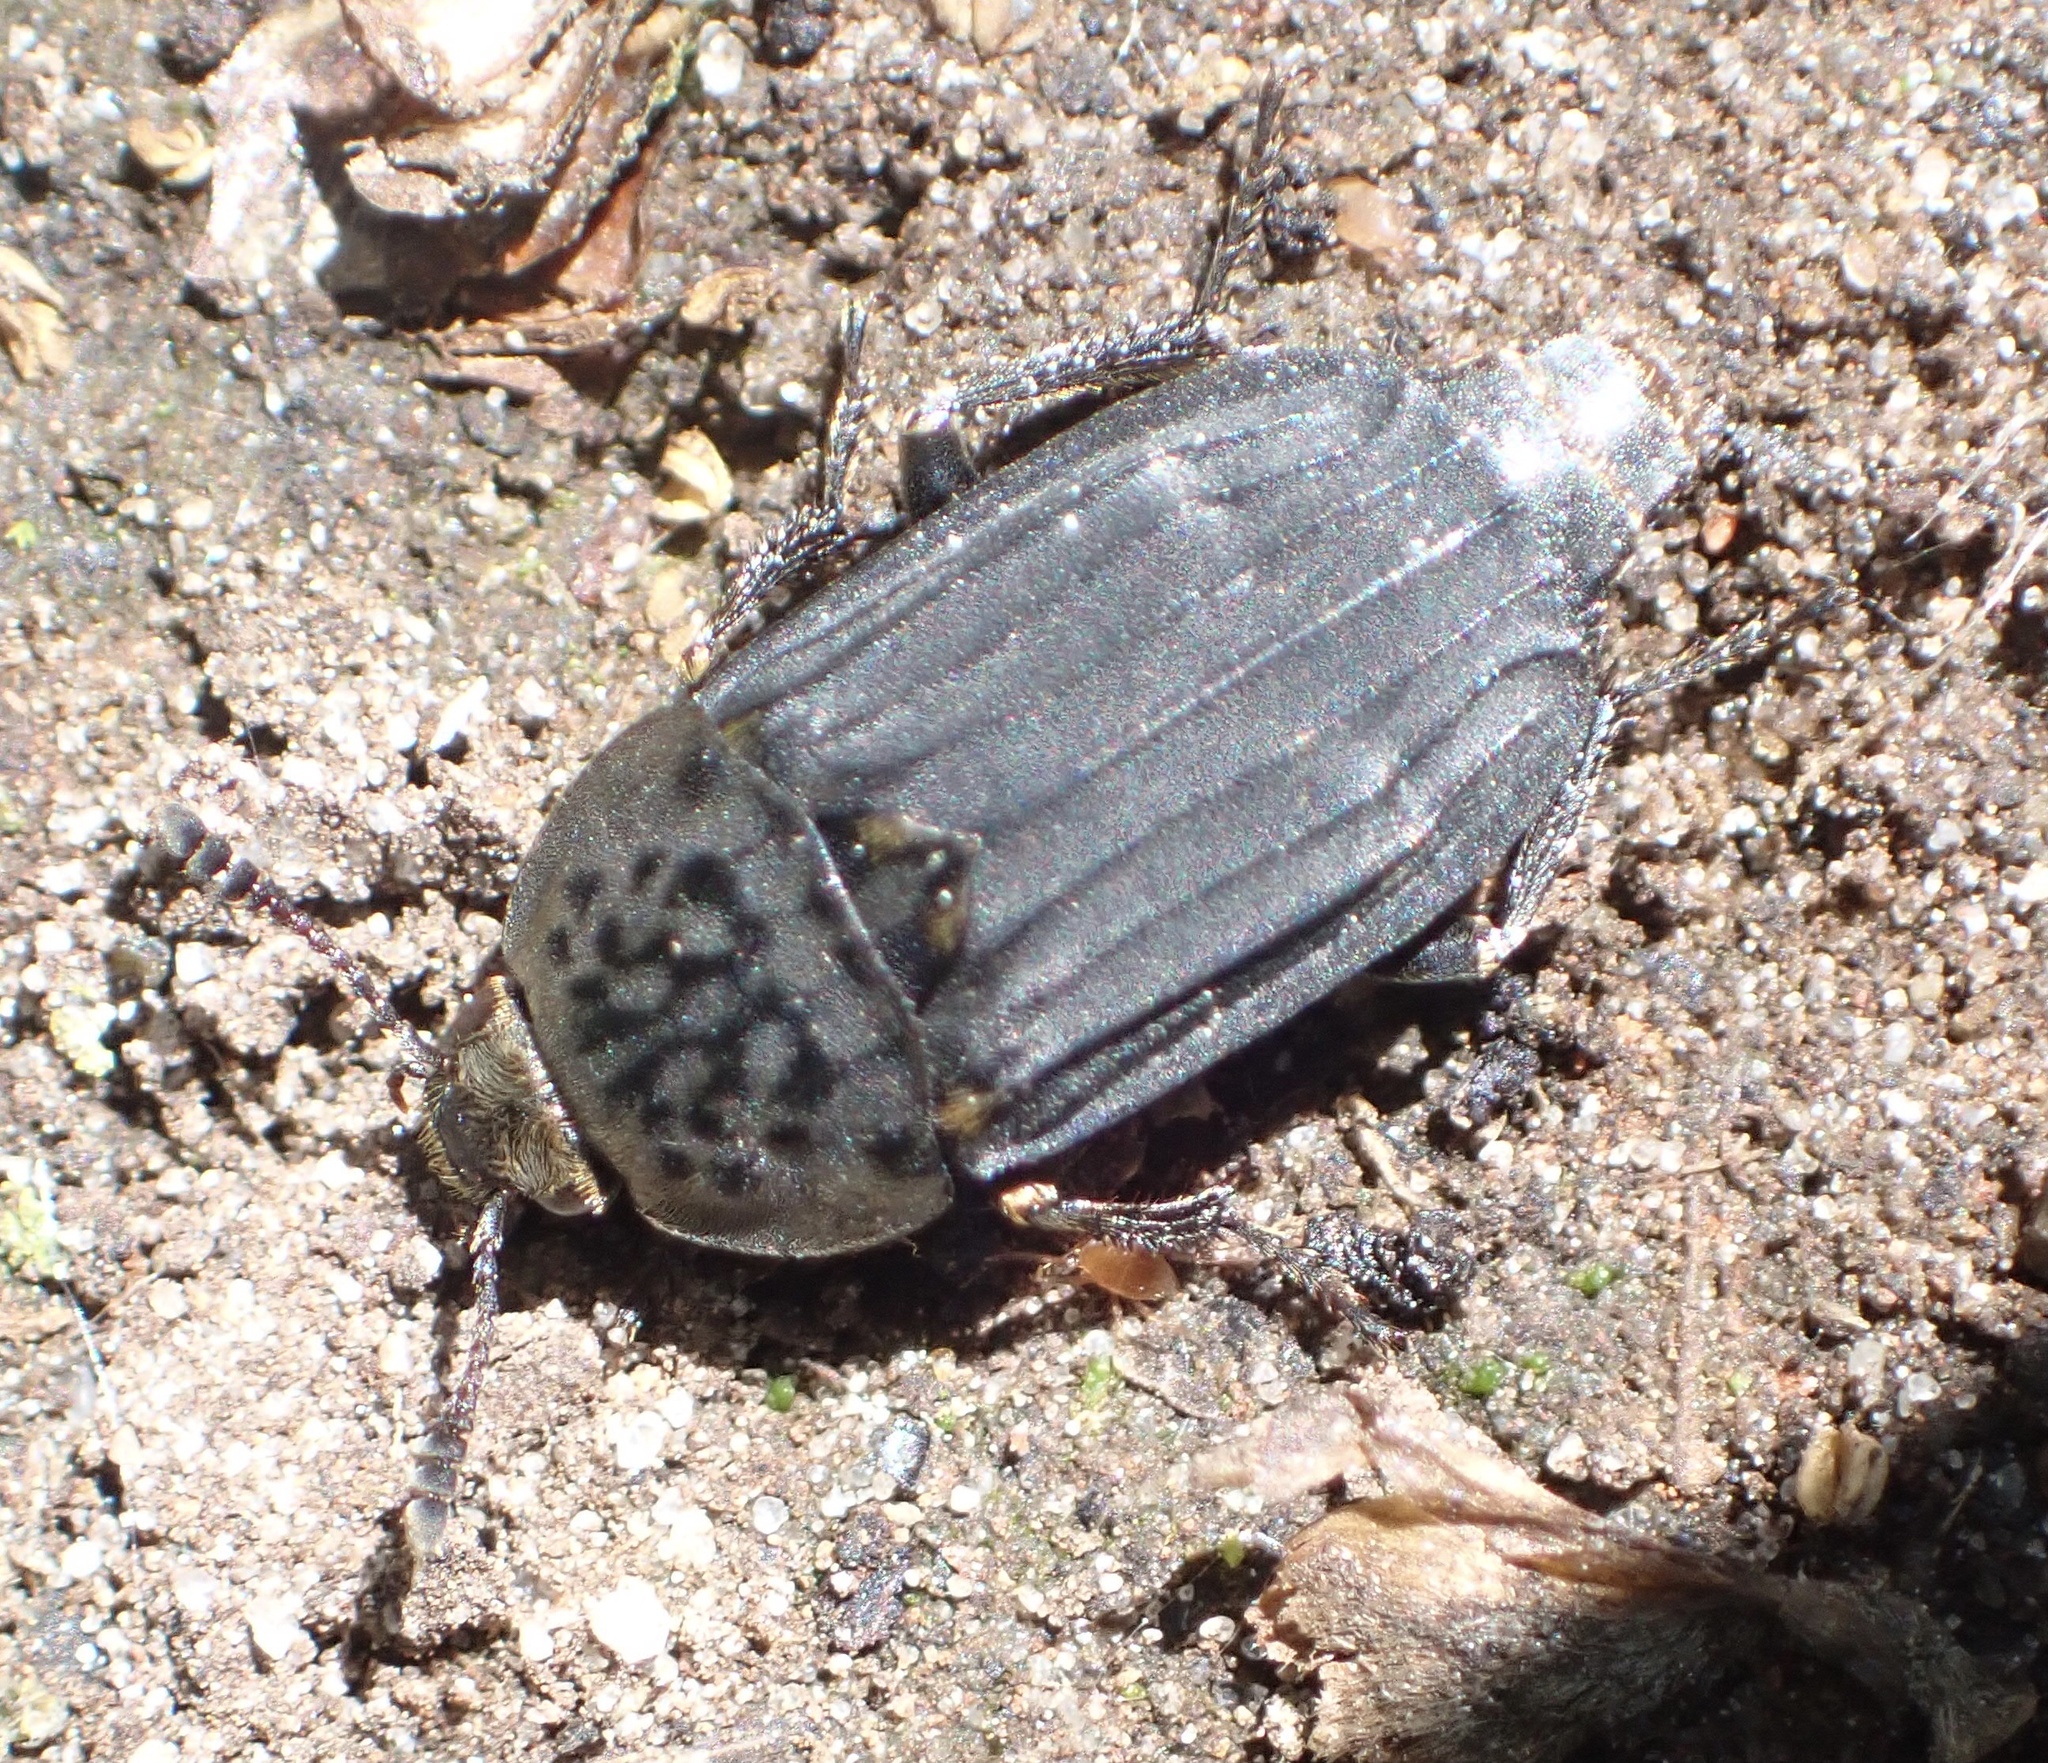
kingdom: Animalia
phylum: Arthropoda
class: Insecta
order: Coleoptera
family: Staphylinidae
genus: Thanatophilus
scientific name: Thanatophilus sinuatus
